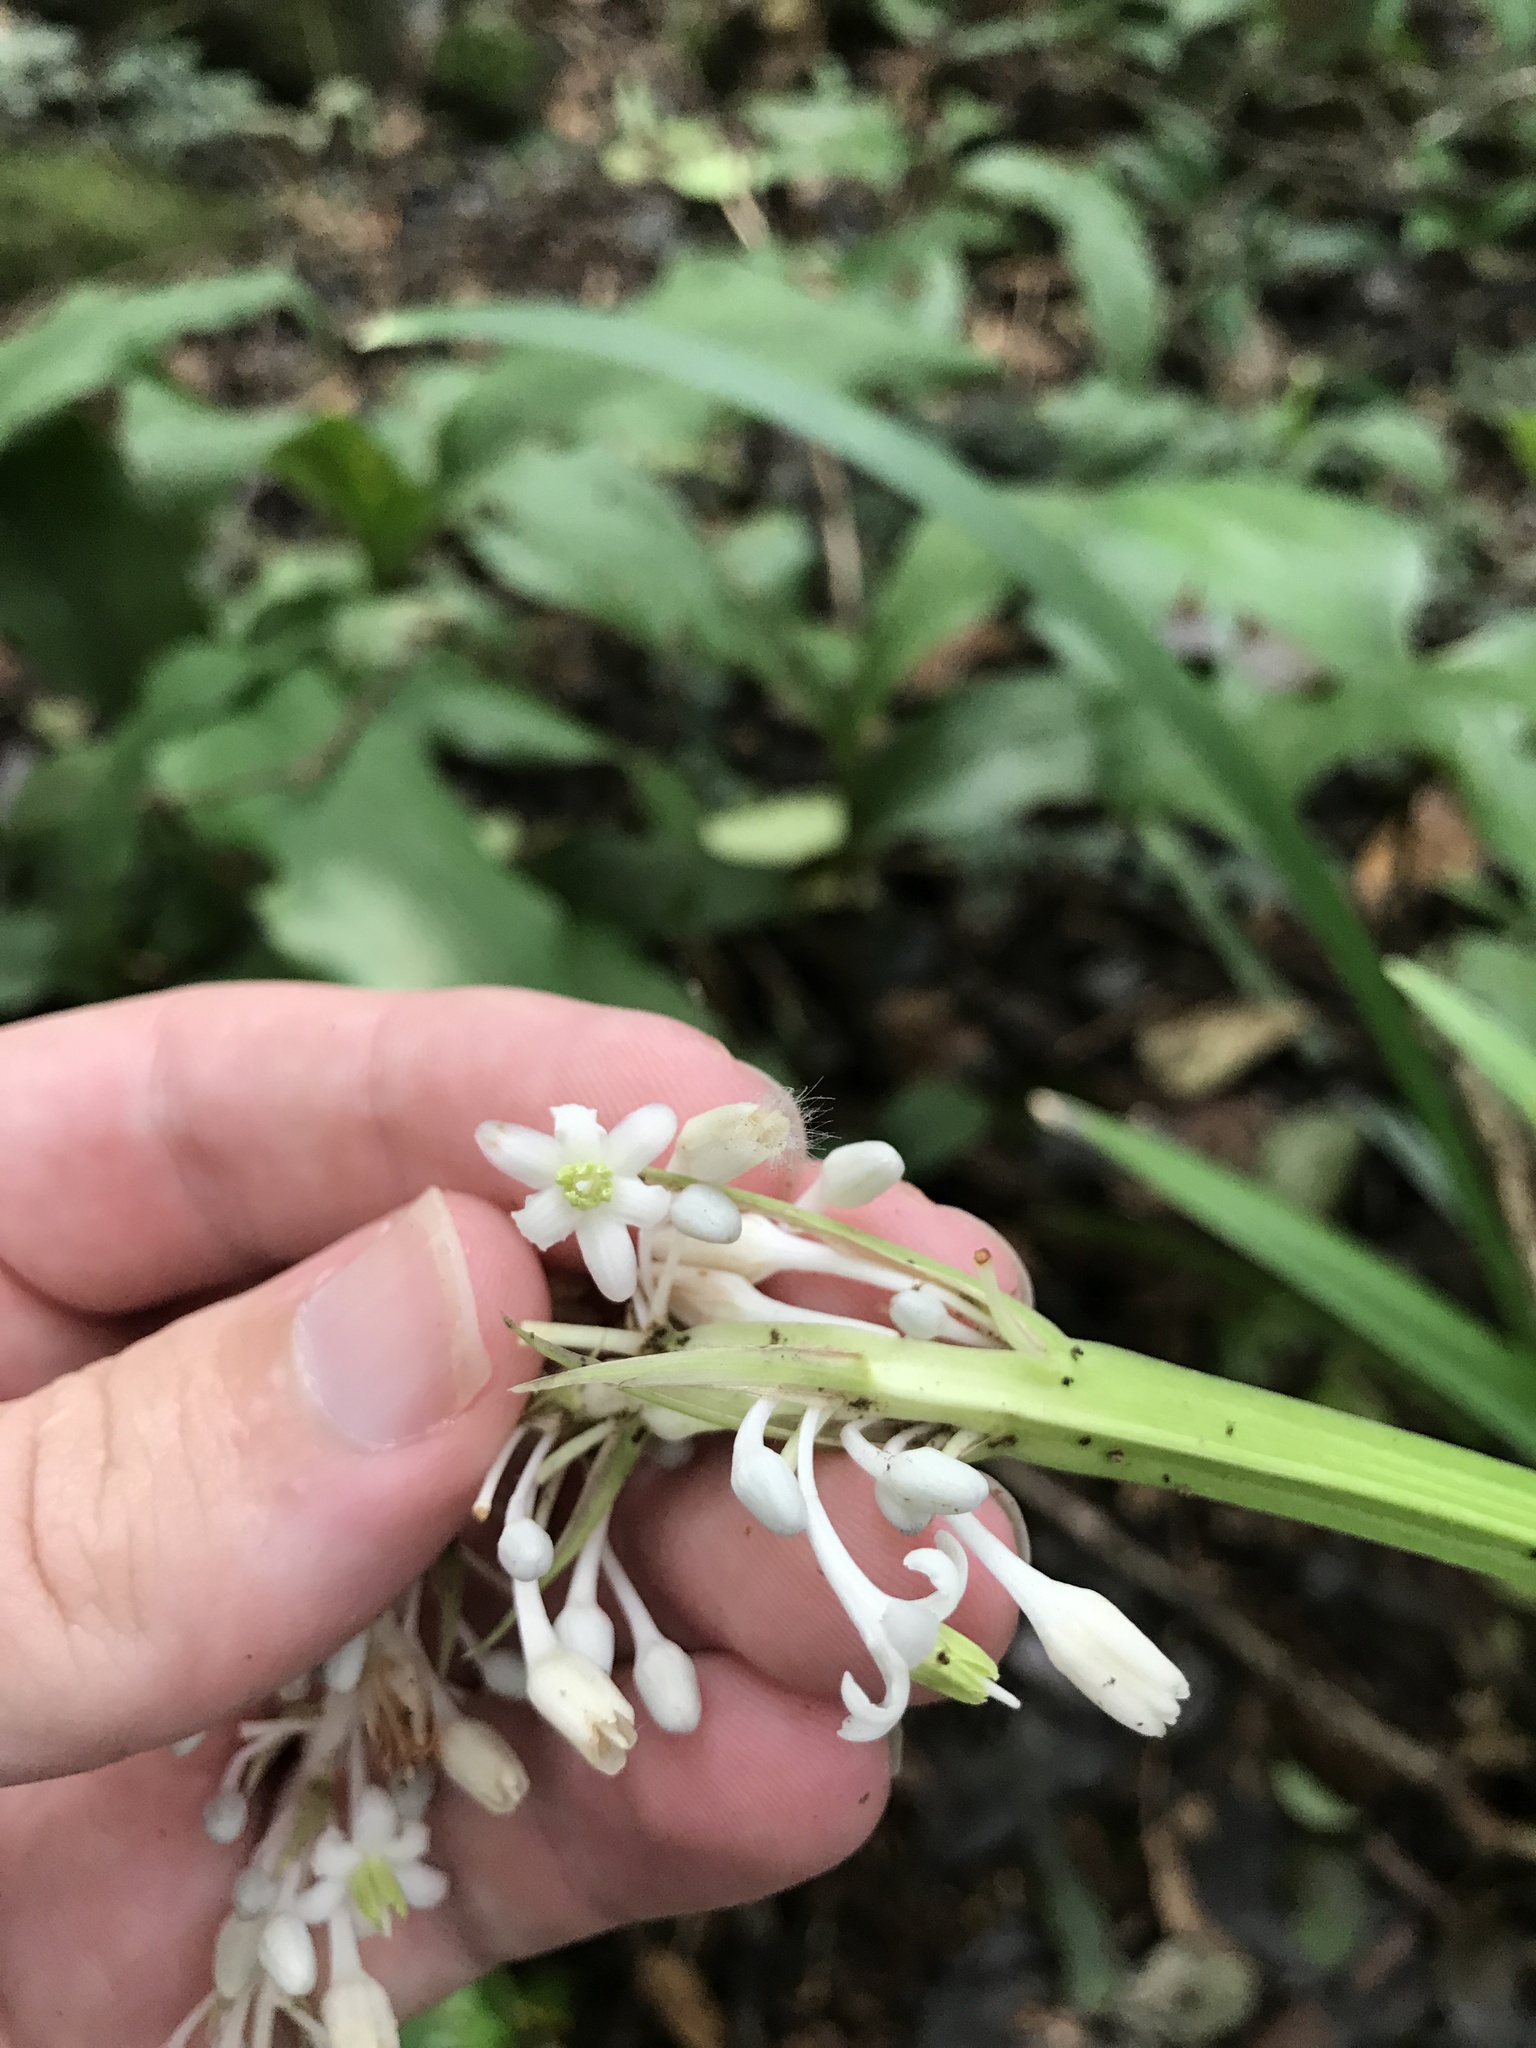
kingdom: Plantae
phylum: Tracheophyta
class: Liliopsida
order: Asparagales
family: Asparagaceae
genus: Ophiopogon
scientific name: Ophiopogon jaburan
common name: Lilyturf
